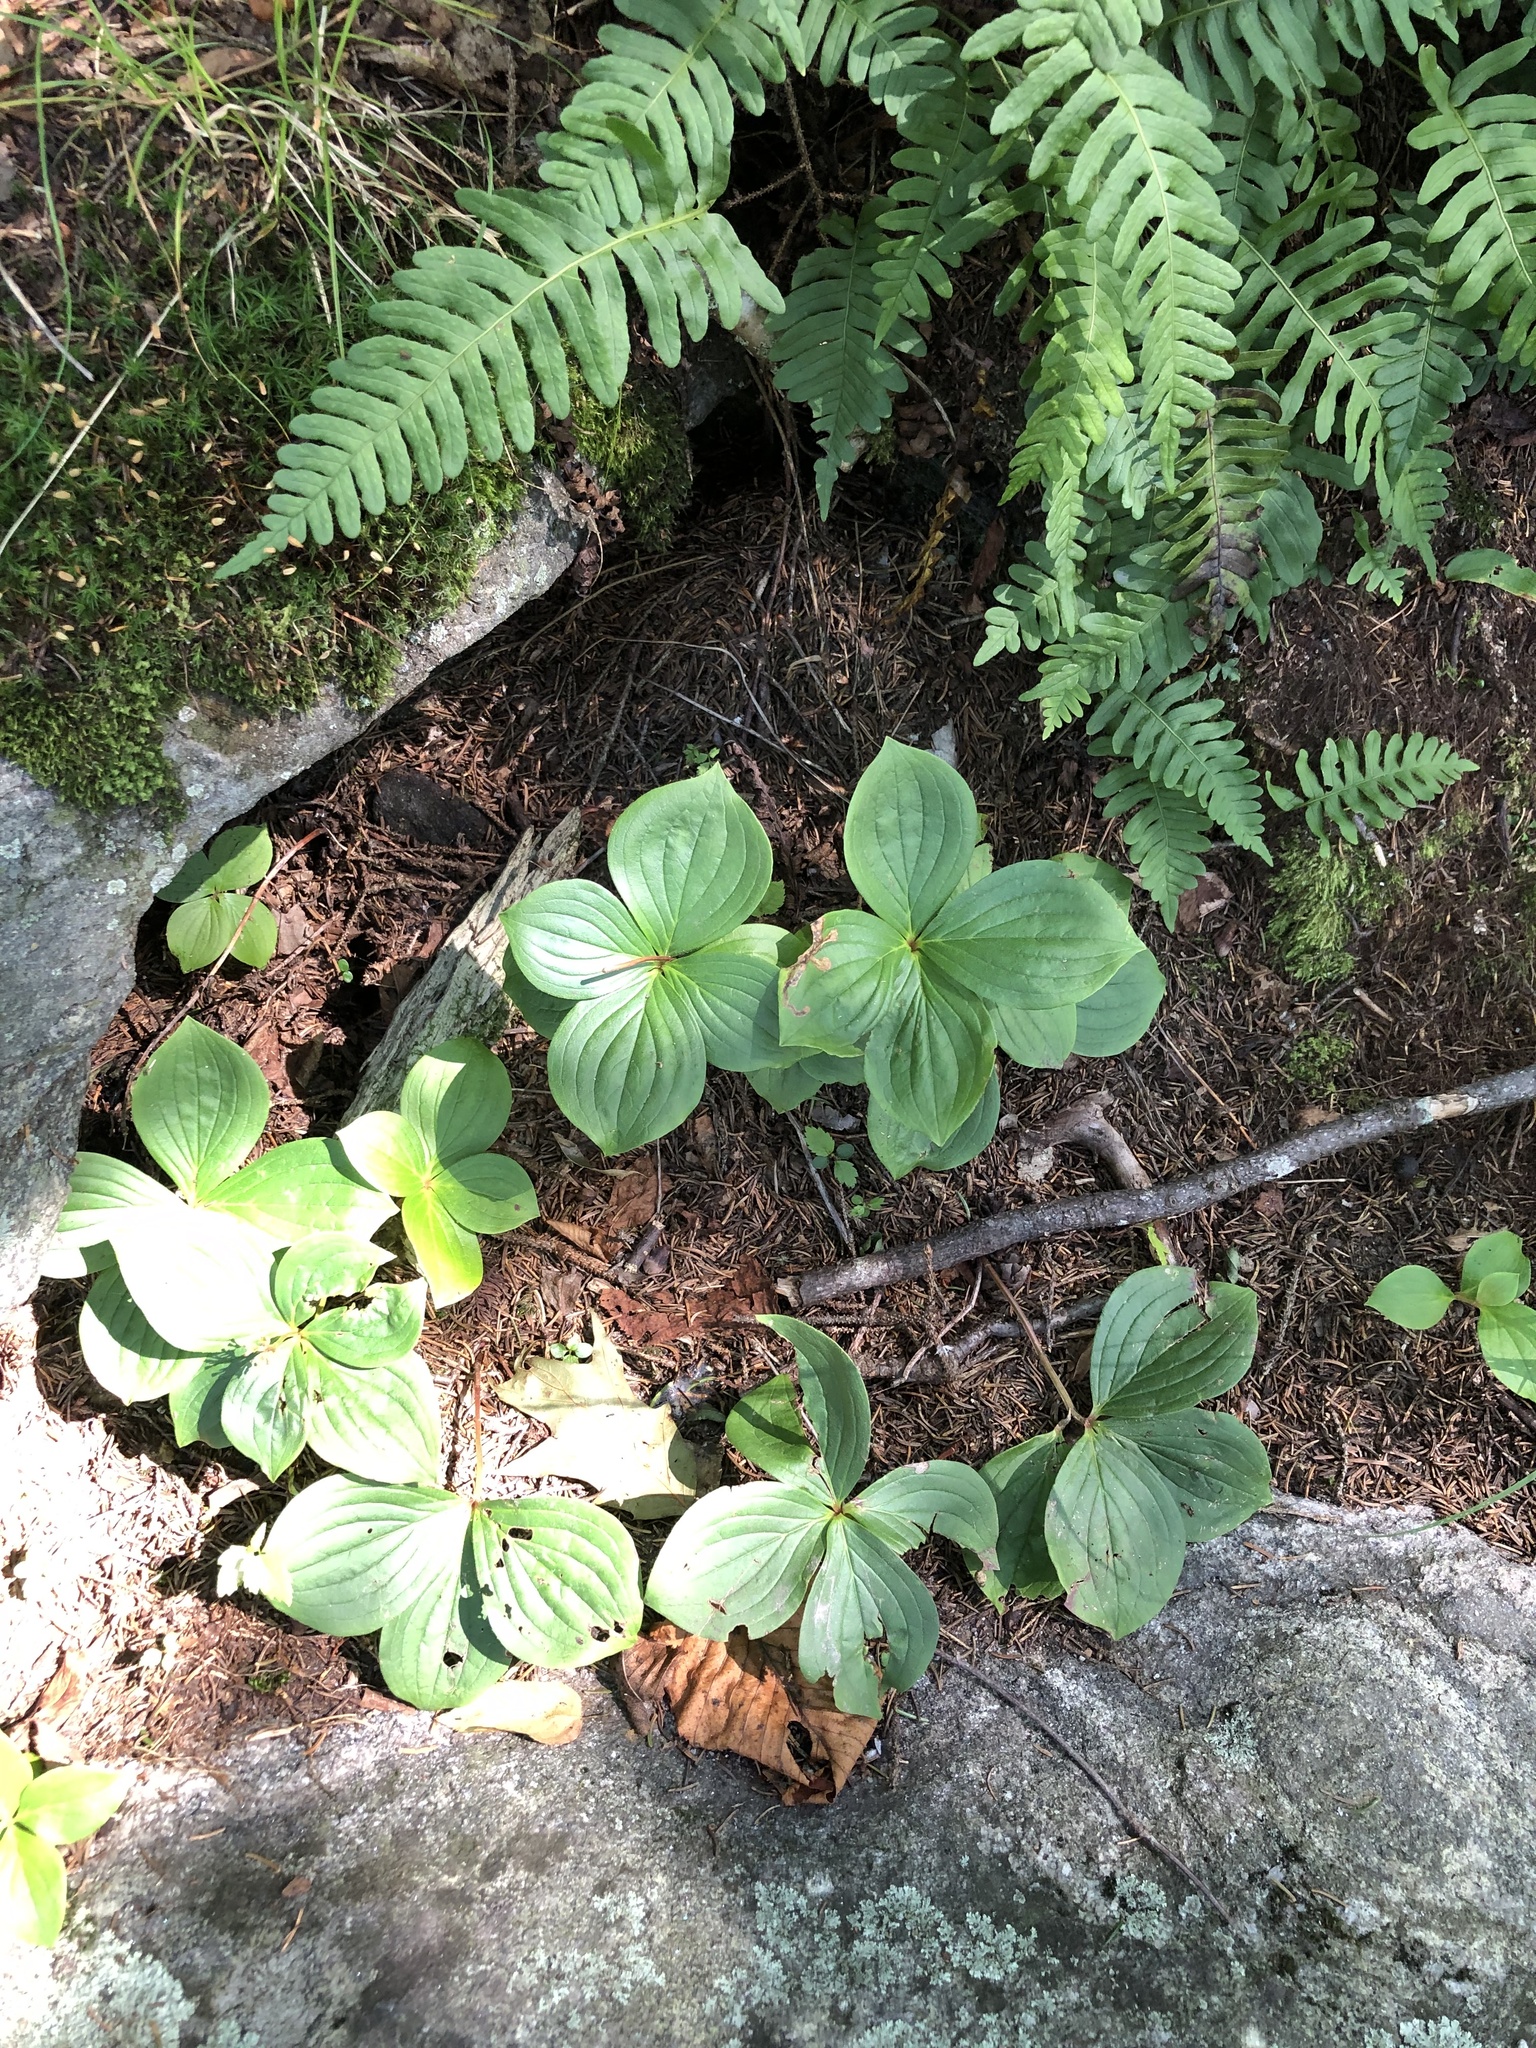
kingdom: Plantae
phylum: Tracheophyta
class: Magnoliopsida
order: Cornales
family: Cornaceae
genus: Cornus
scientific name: Cornus canadensis
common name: Creeping dogwood
